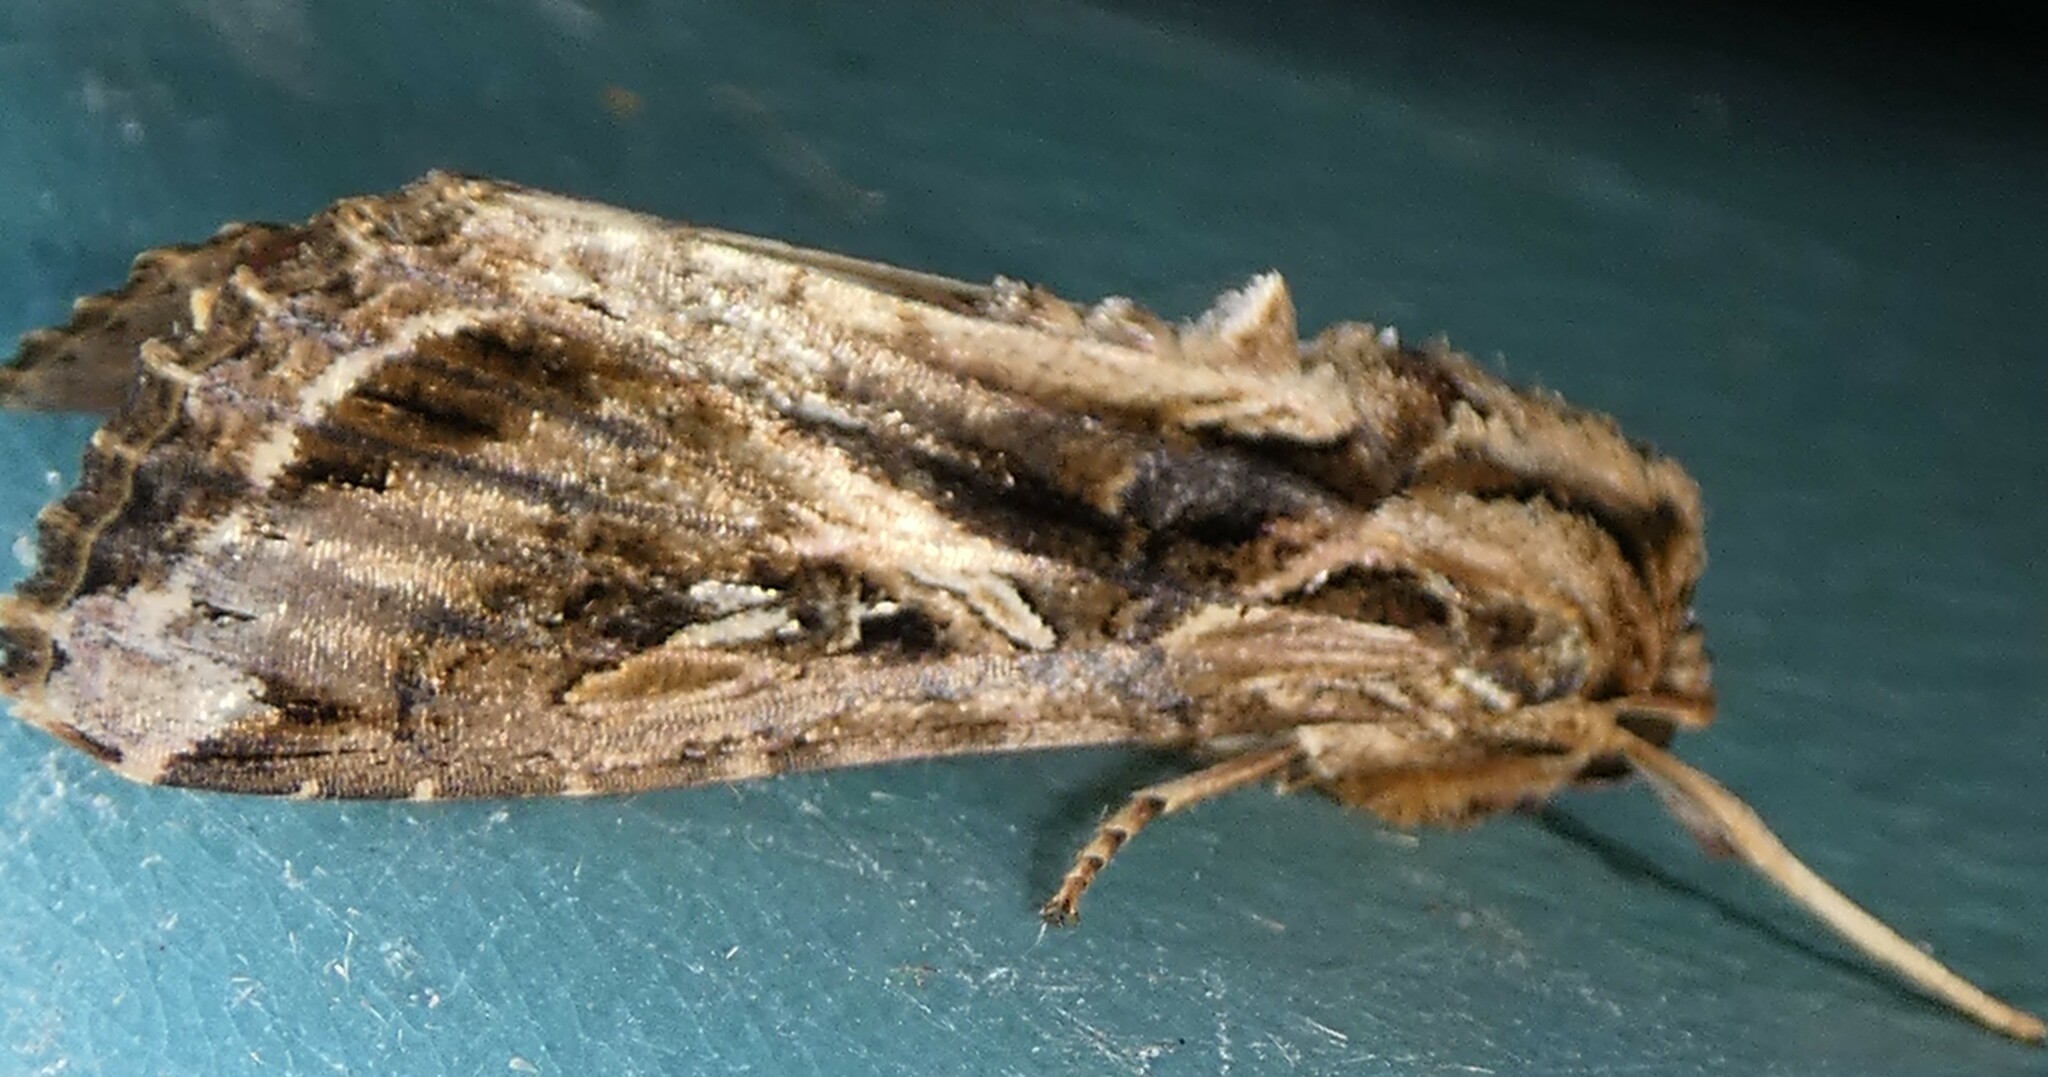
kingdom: Animalia
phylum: Arthropoda
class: Insecta
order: Lepidoptera
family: Noctuidae
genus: Spodoptera
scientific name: Spodoptera dolichos
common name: Sweetpotato armyworm
